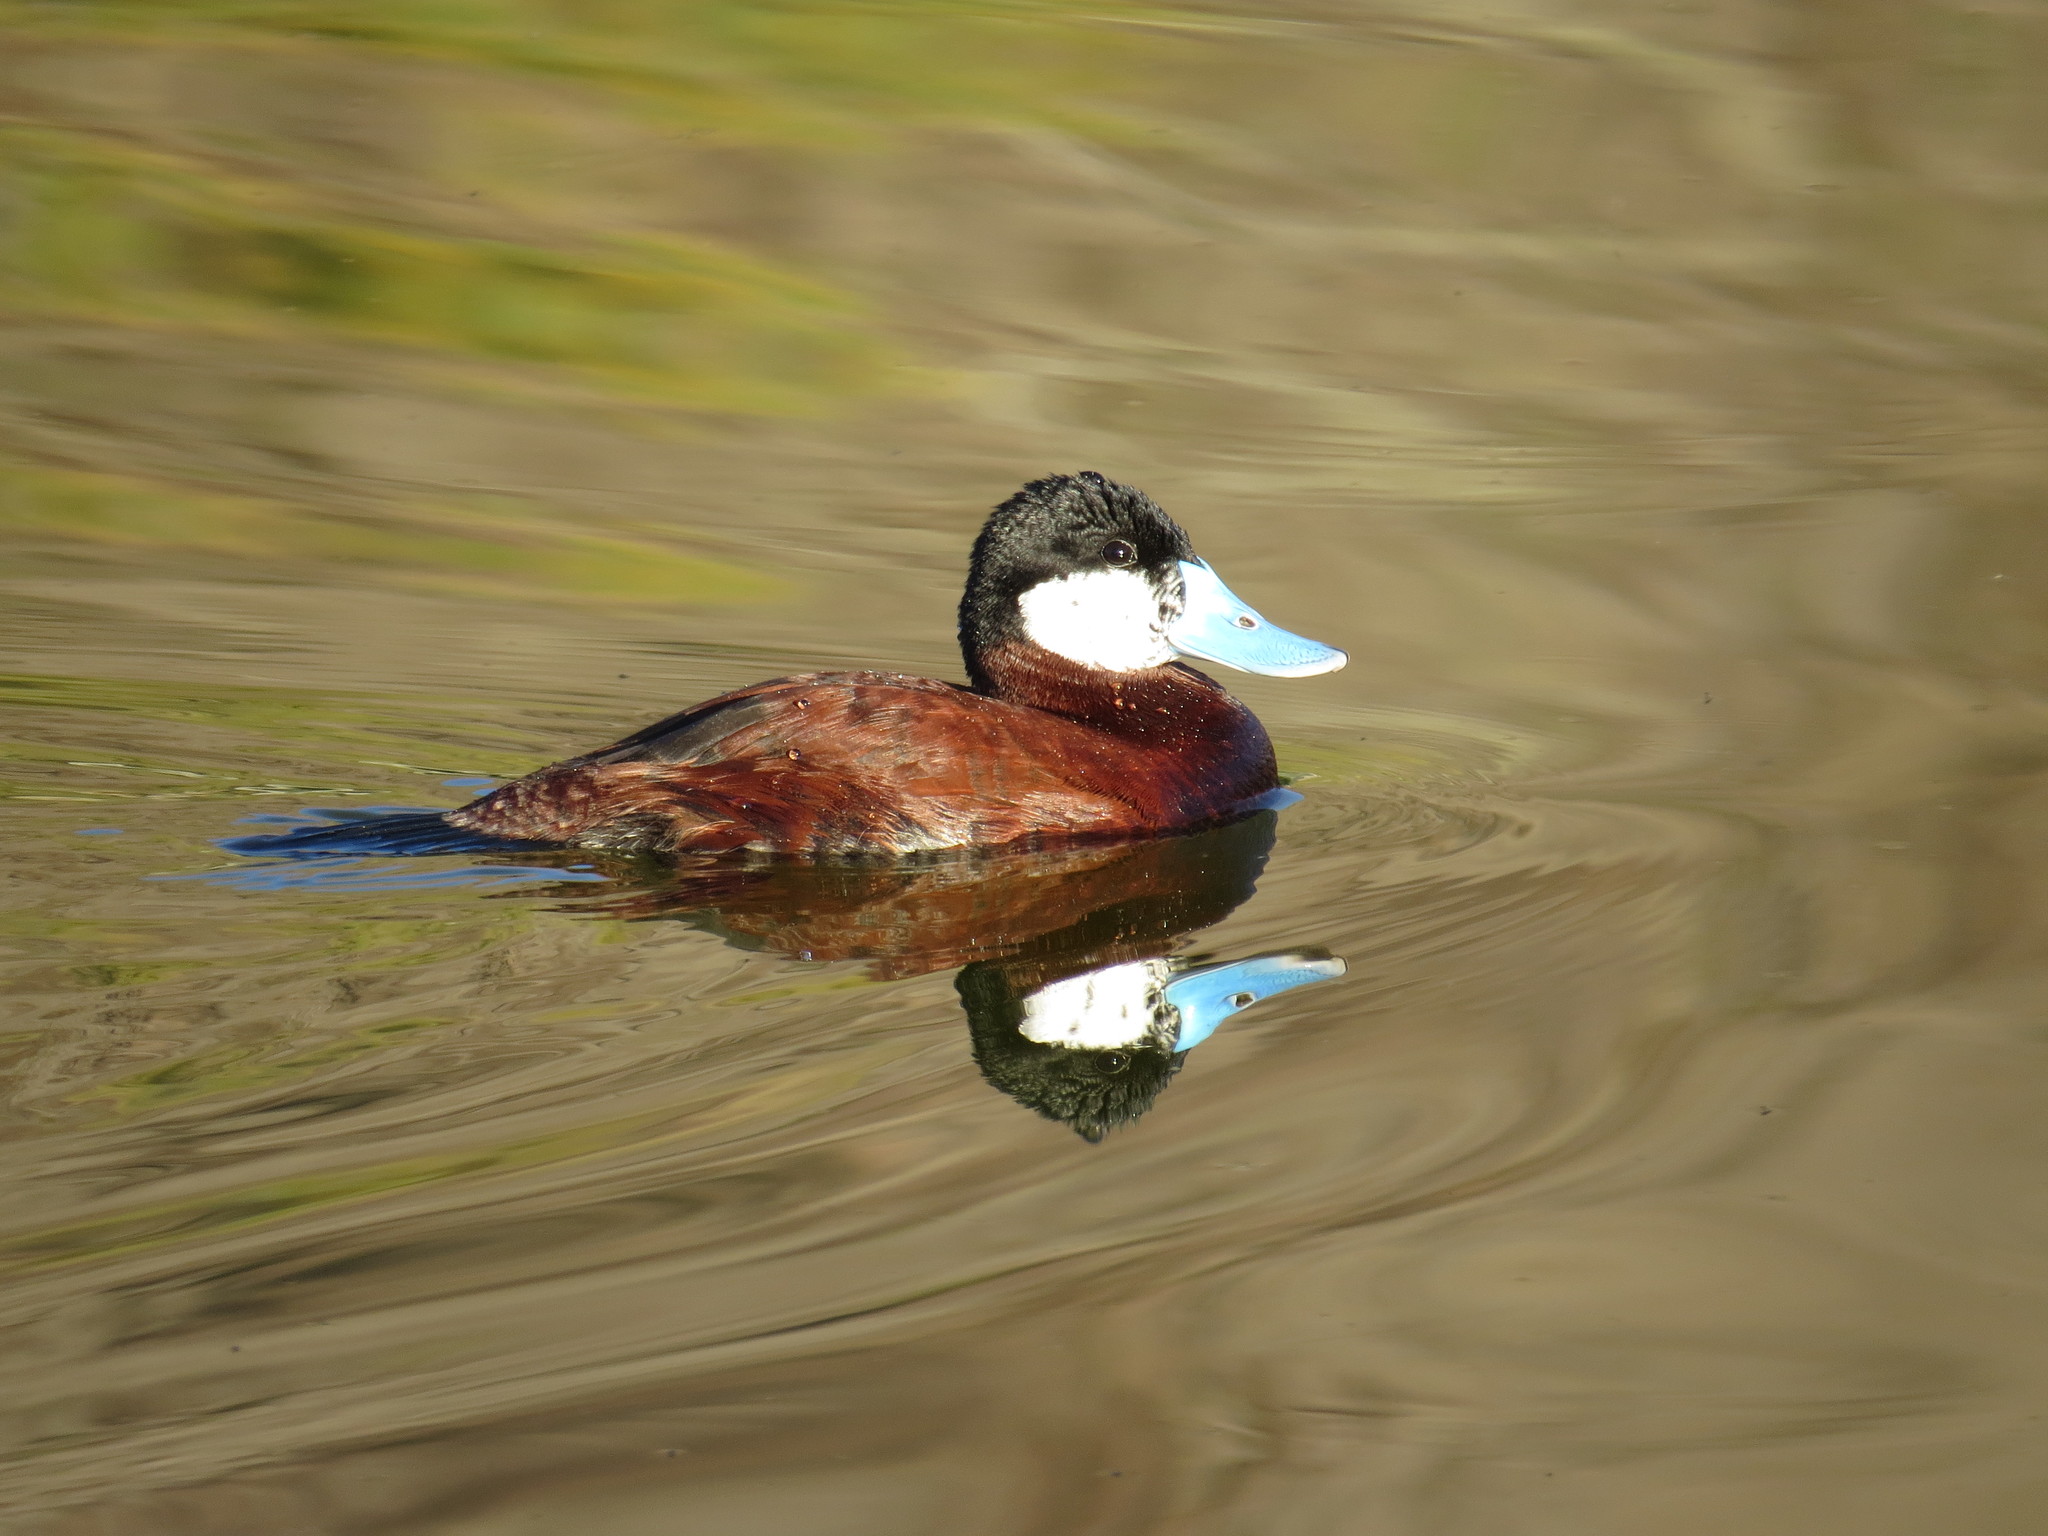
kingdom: Animalia
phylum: Chordata
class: Aves
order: Anseriformes
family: Anatidae
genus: Oxyura
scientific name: Oxyura jamaicensis
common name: Ruddy duck
